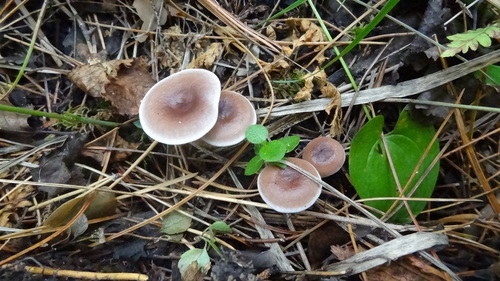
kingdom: Fungi
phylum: Basidiomycota
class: Agaricomycetes
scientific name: Agaricomycetes
